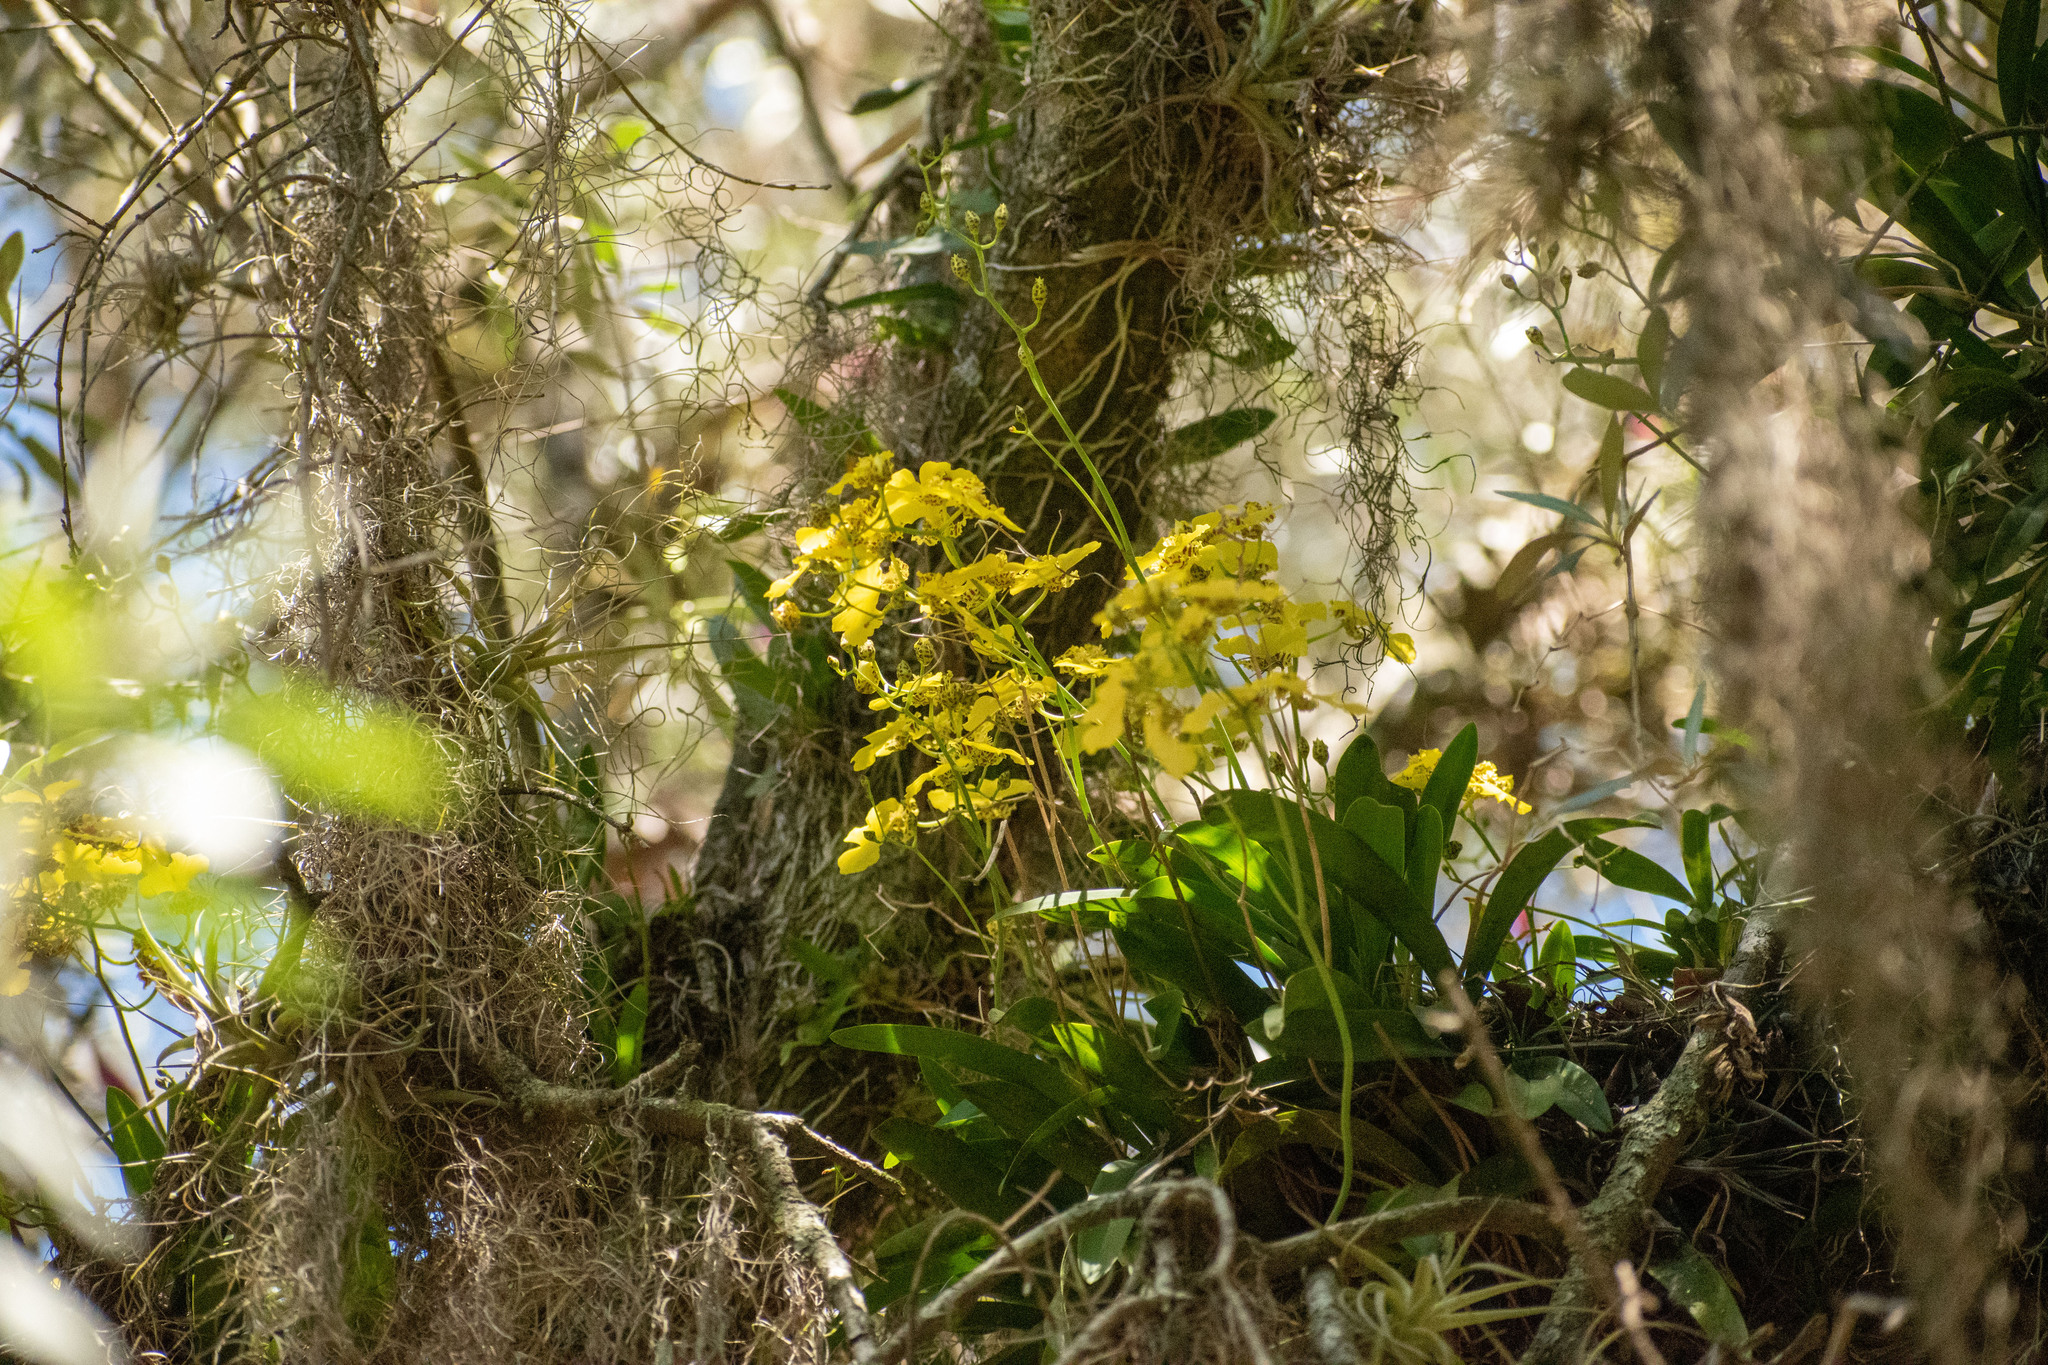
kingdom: Plantae
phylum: Tracheophyta
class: Liliopsida
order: Asparagales
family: Orchidaceae
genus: Gomesa
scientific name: Gomesa bifolia
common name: Dancing ladies
